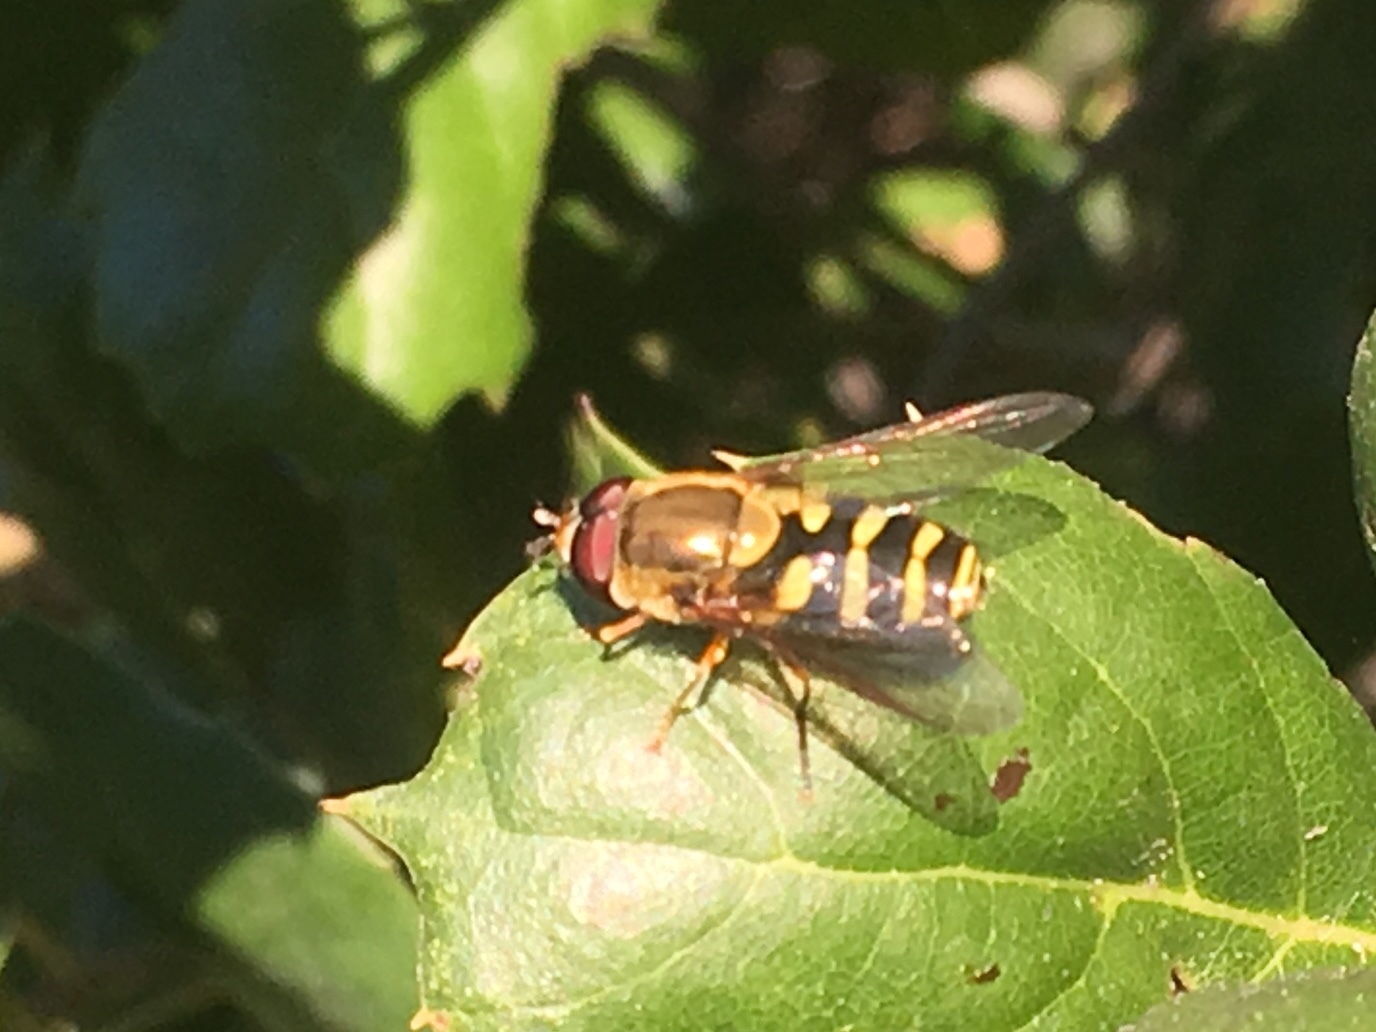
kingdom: Animalia
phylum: Arthropoda
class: Insecta
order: Diptera
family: Syrphidae
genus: Syrphus
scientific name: Syrphus opinator
